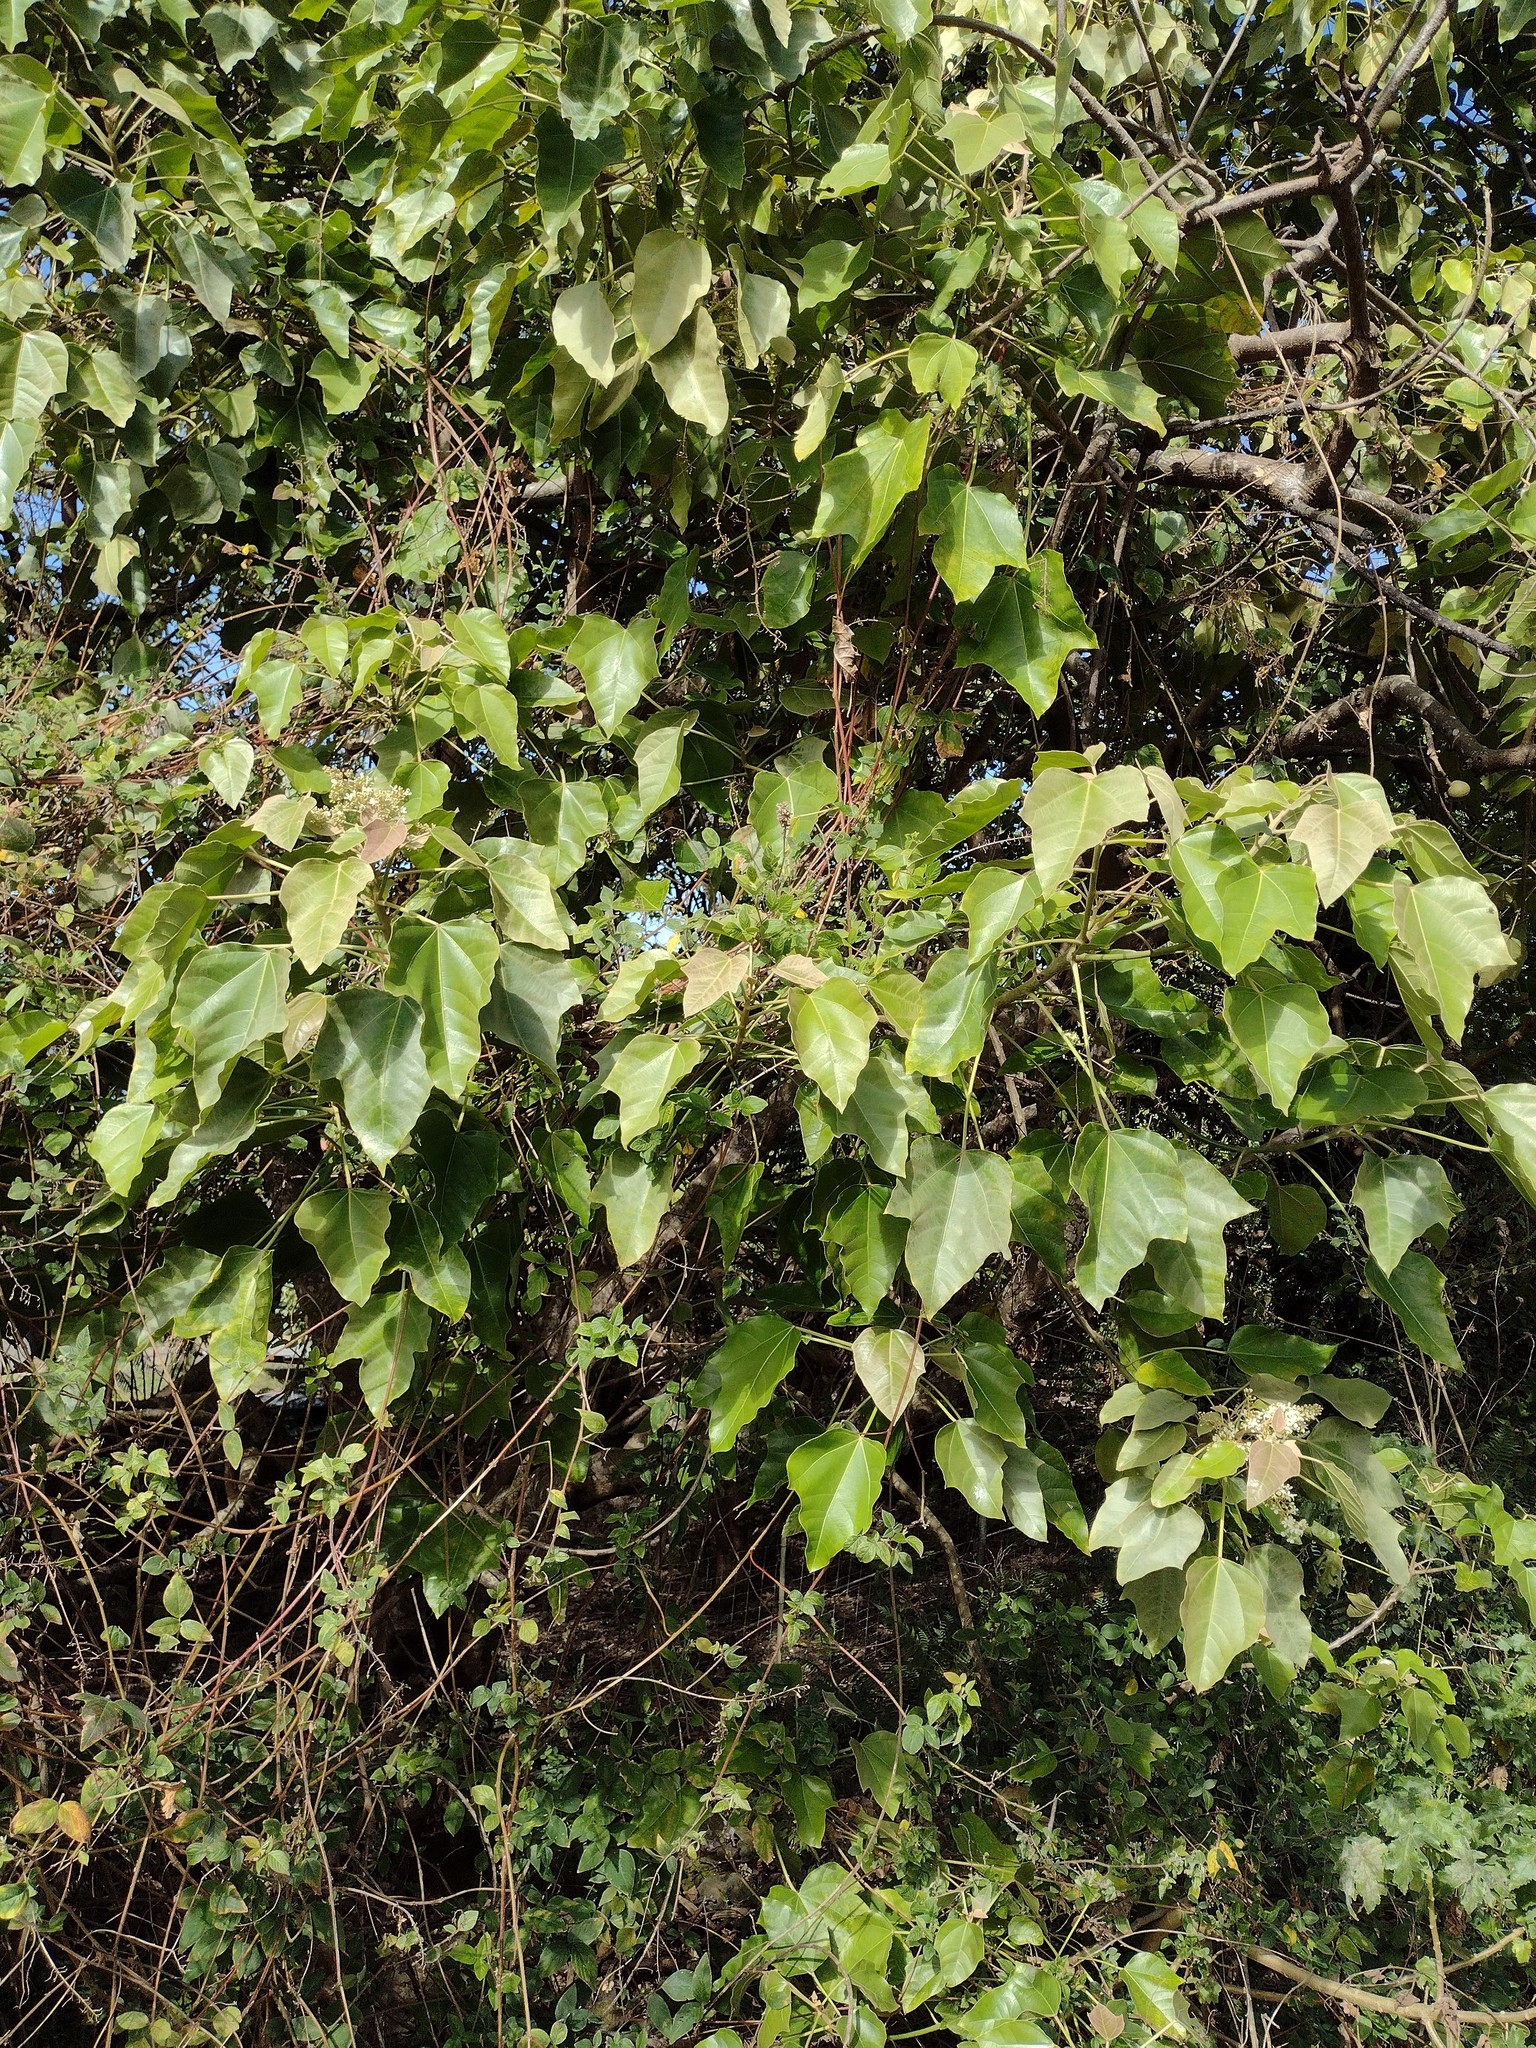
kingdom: Plantae
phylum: Tracheophyta
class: Magnoliopsida
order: Malpighiales
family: Euphorbiaceae
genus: Aleurites
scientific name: Aleurites moluccanus
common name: Candlenut tree
